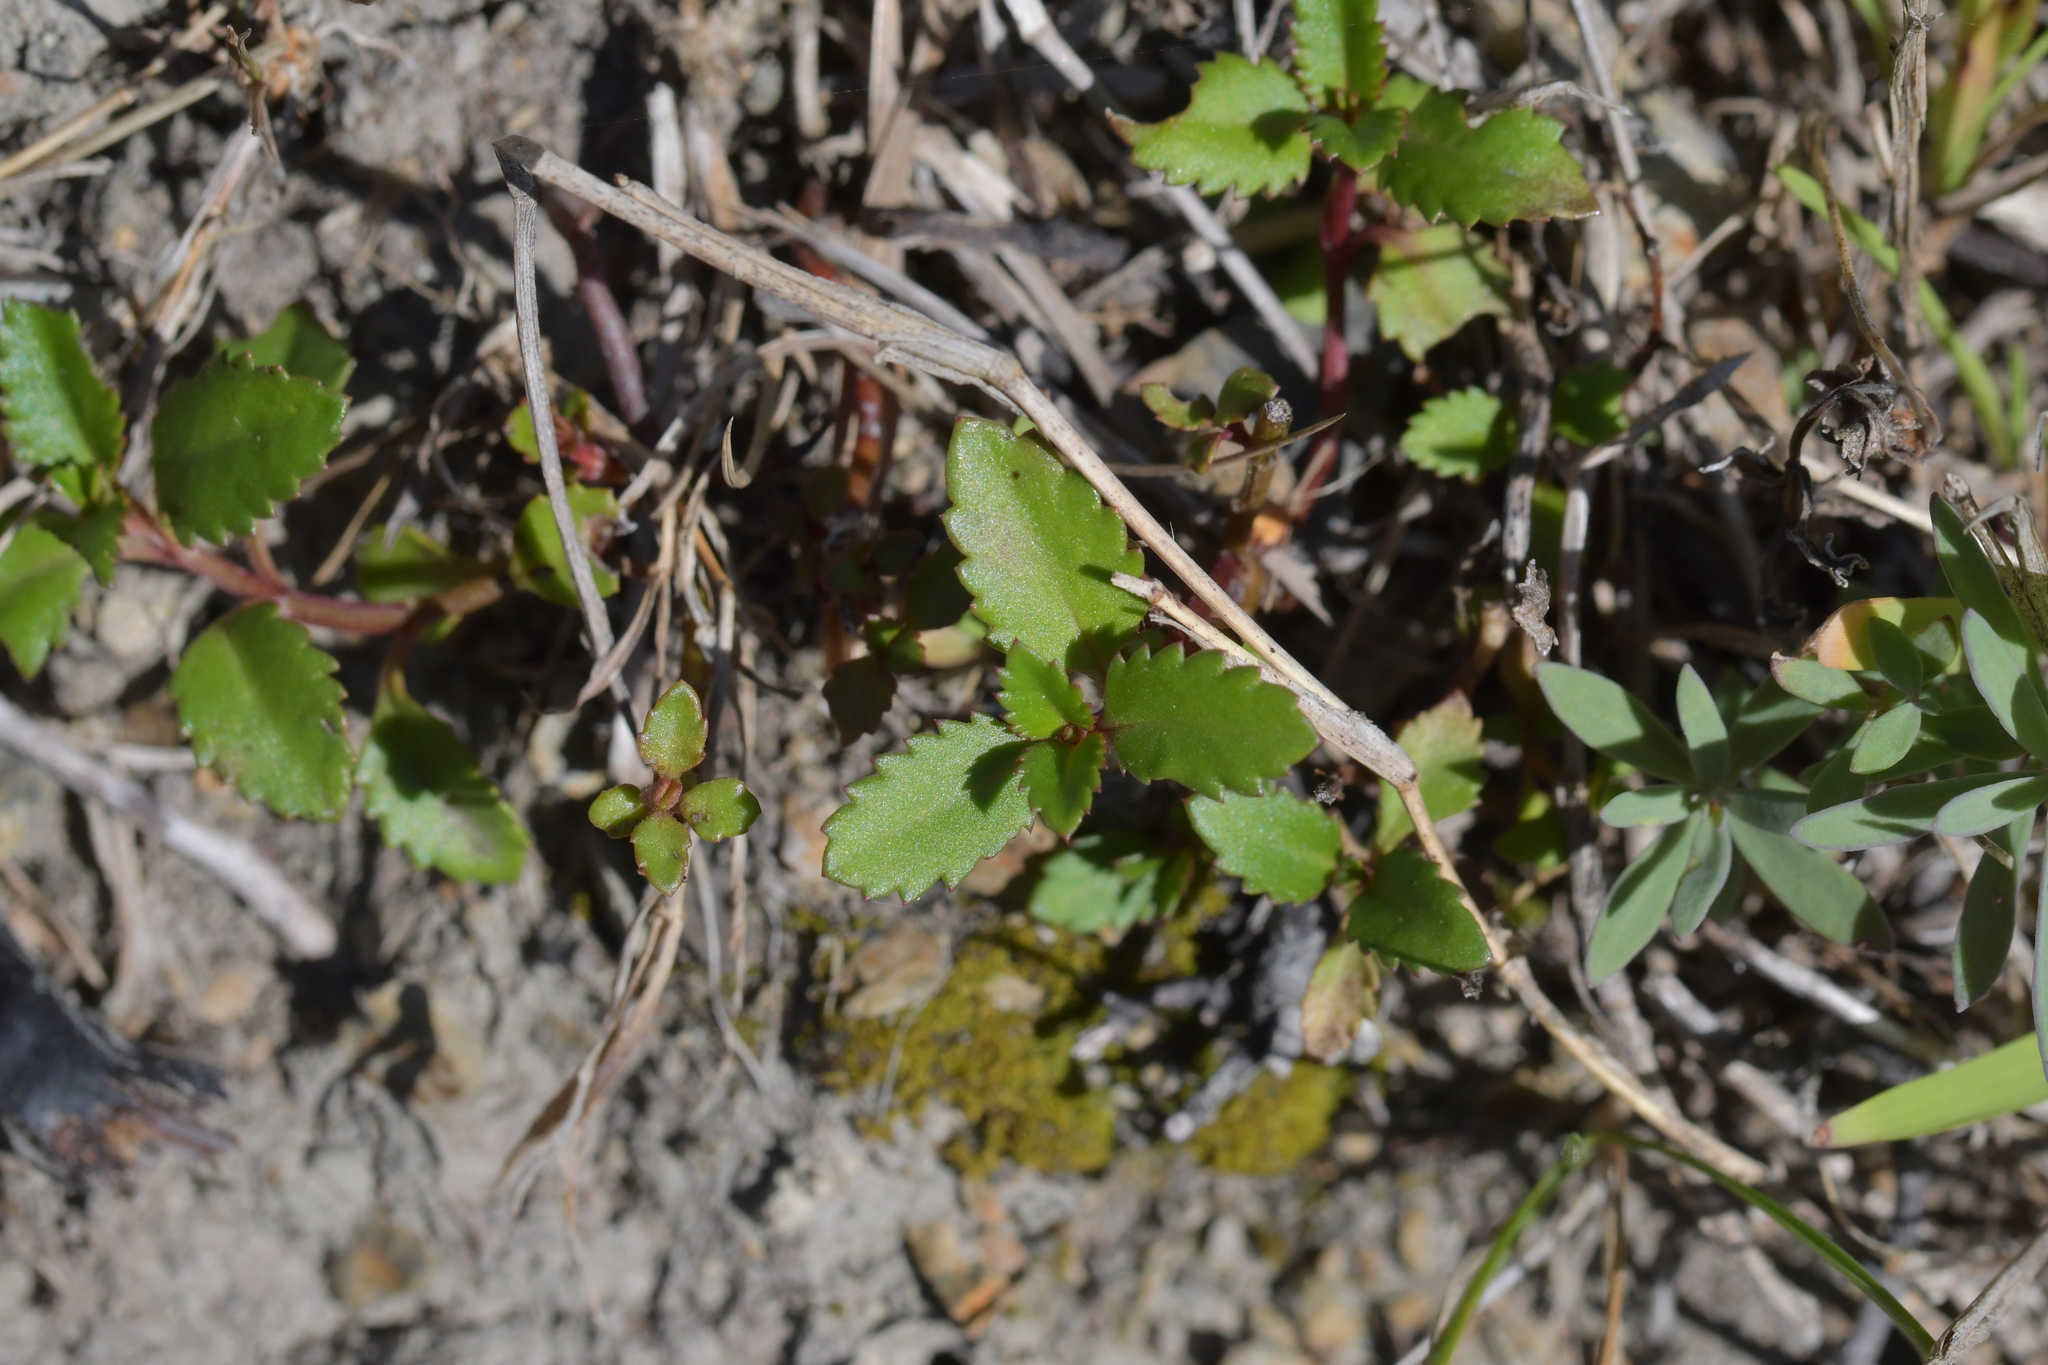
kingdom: Plantae
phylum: Tracheophyta
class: Magnoliopsida
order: Saxifragales
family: Haloragaceae
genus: Haloragis
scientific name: Haloragis erecta
